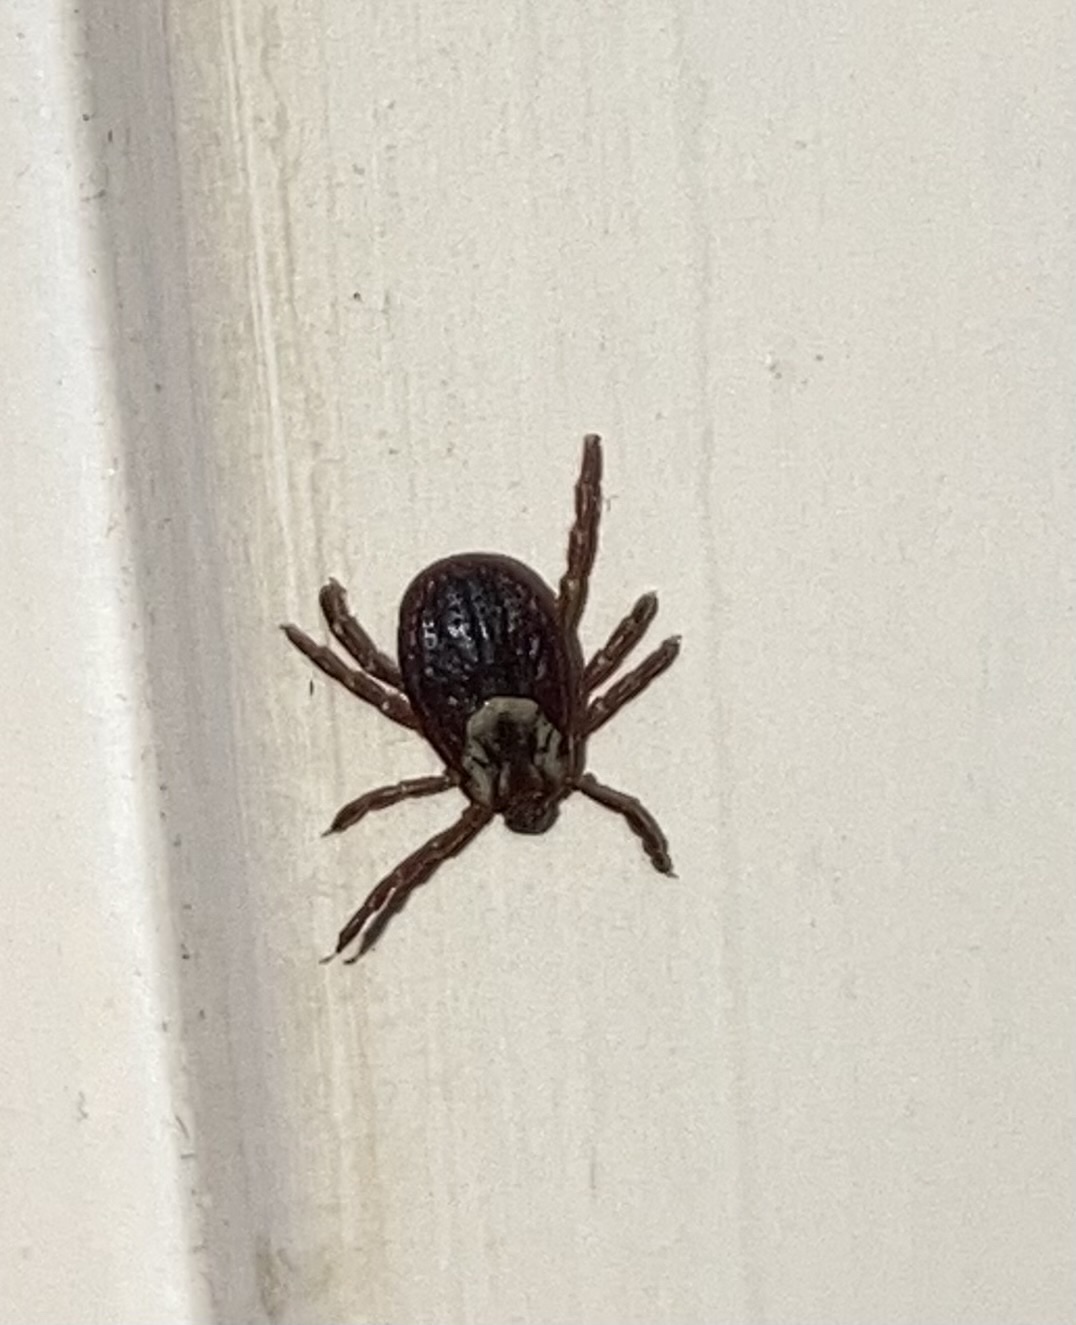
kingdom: Animalia
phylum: Arthropoda
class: Arachnida
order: Ixodida
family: Ixodidae
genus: Dermacentor
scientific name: Dermacentor variabilis
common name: American dog tick
